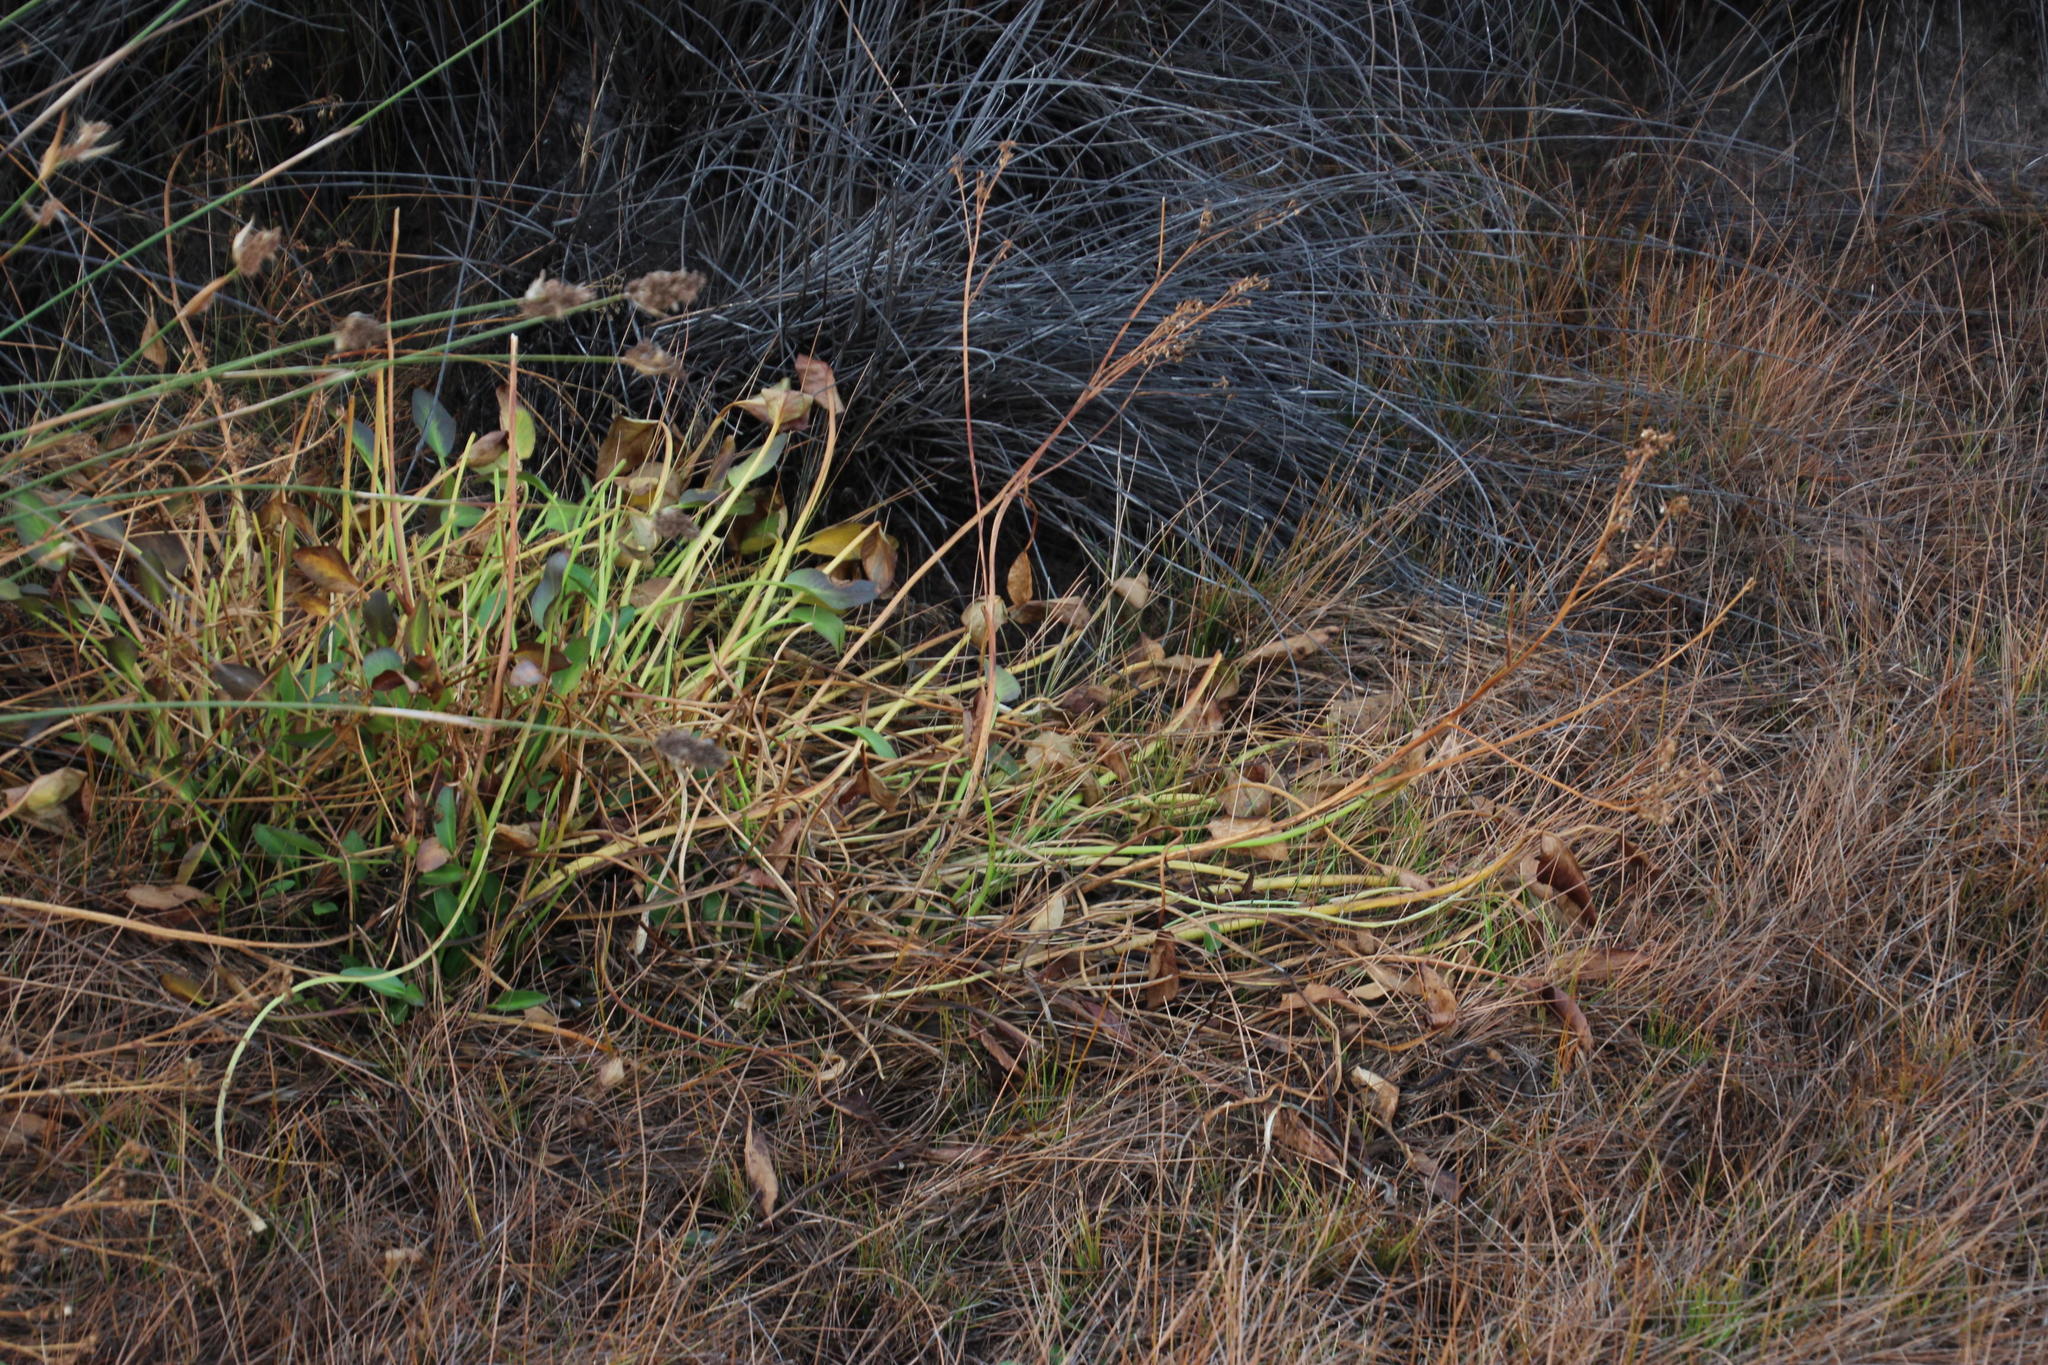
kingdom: Plantae
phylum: Tracheophyta
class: Magnoliopsida
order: Asterales
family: Menyanthaceae
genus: Villarsia
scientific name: Villarsia capensis
